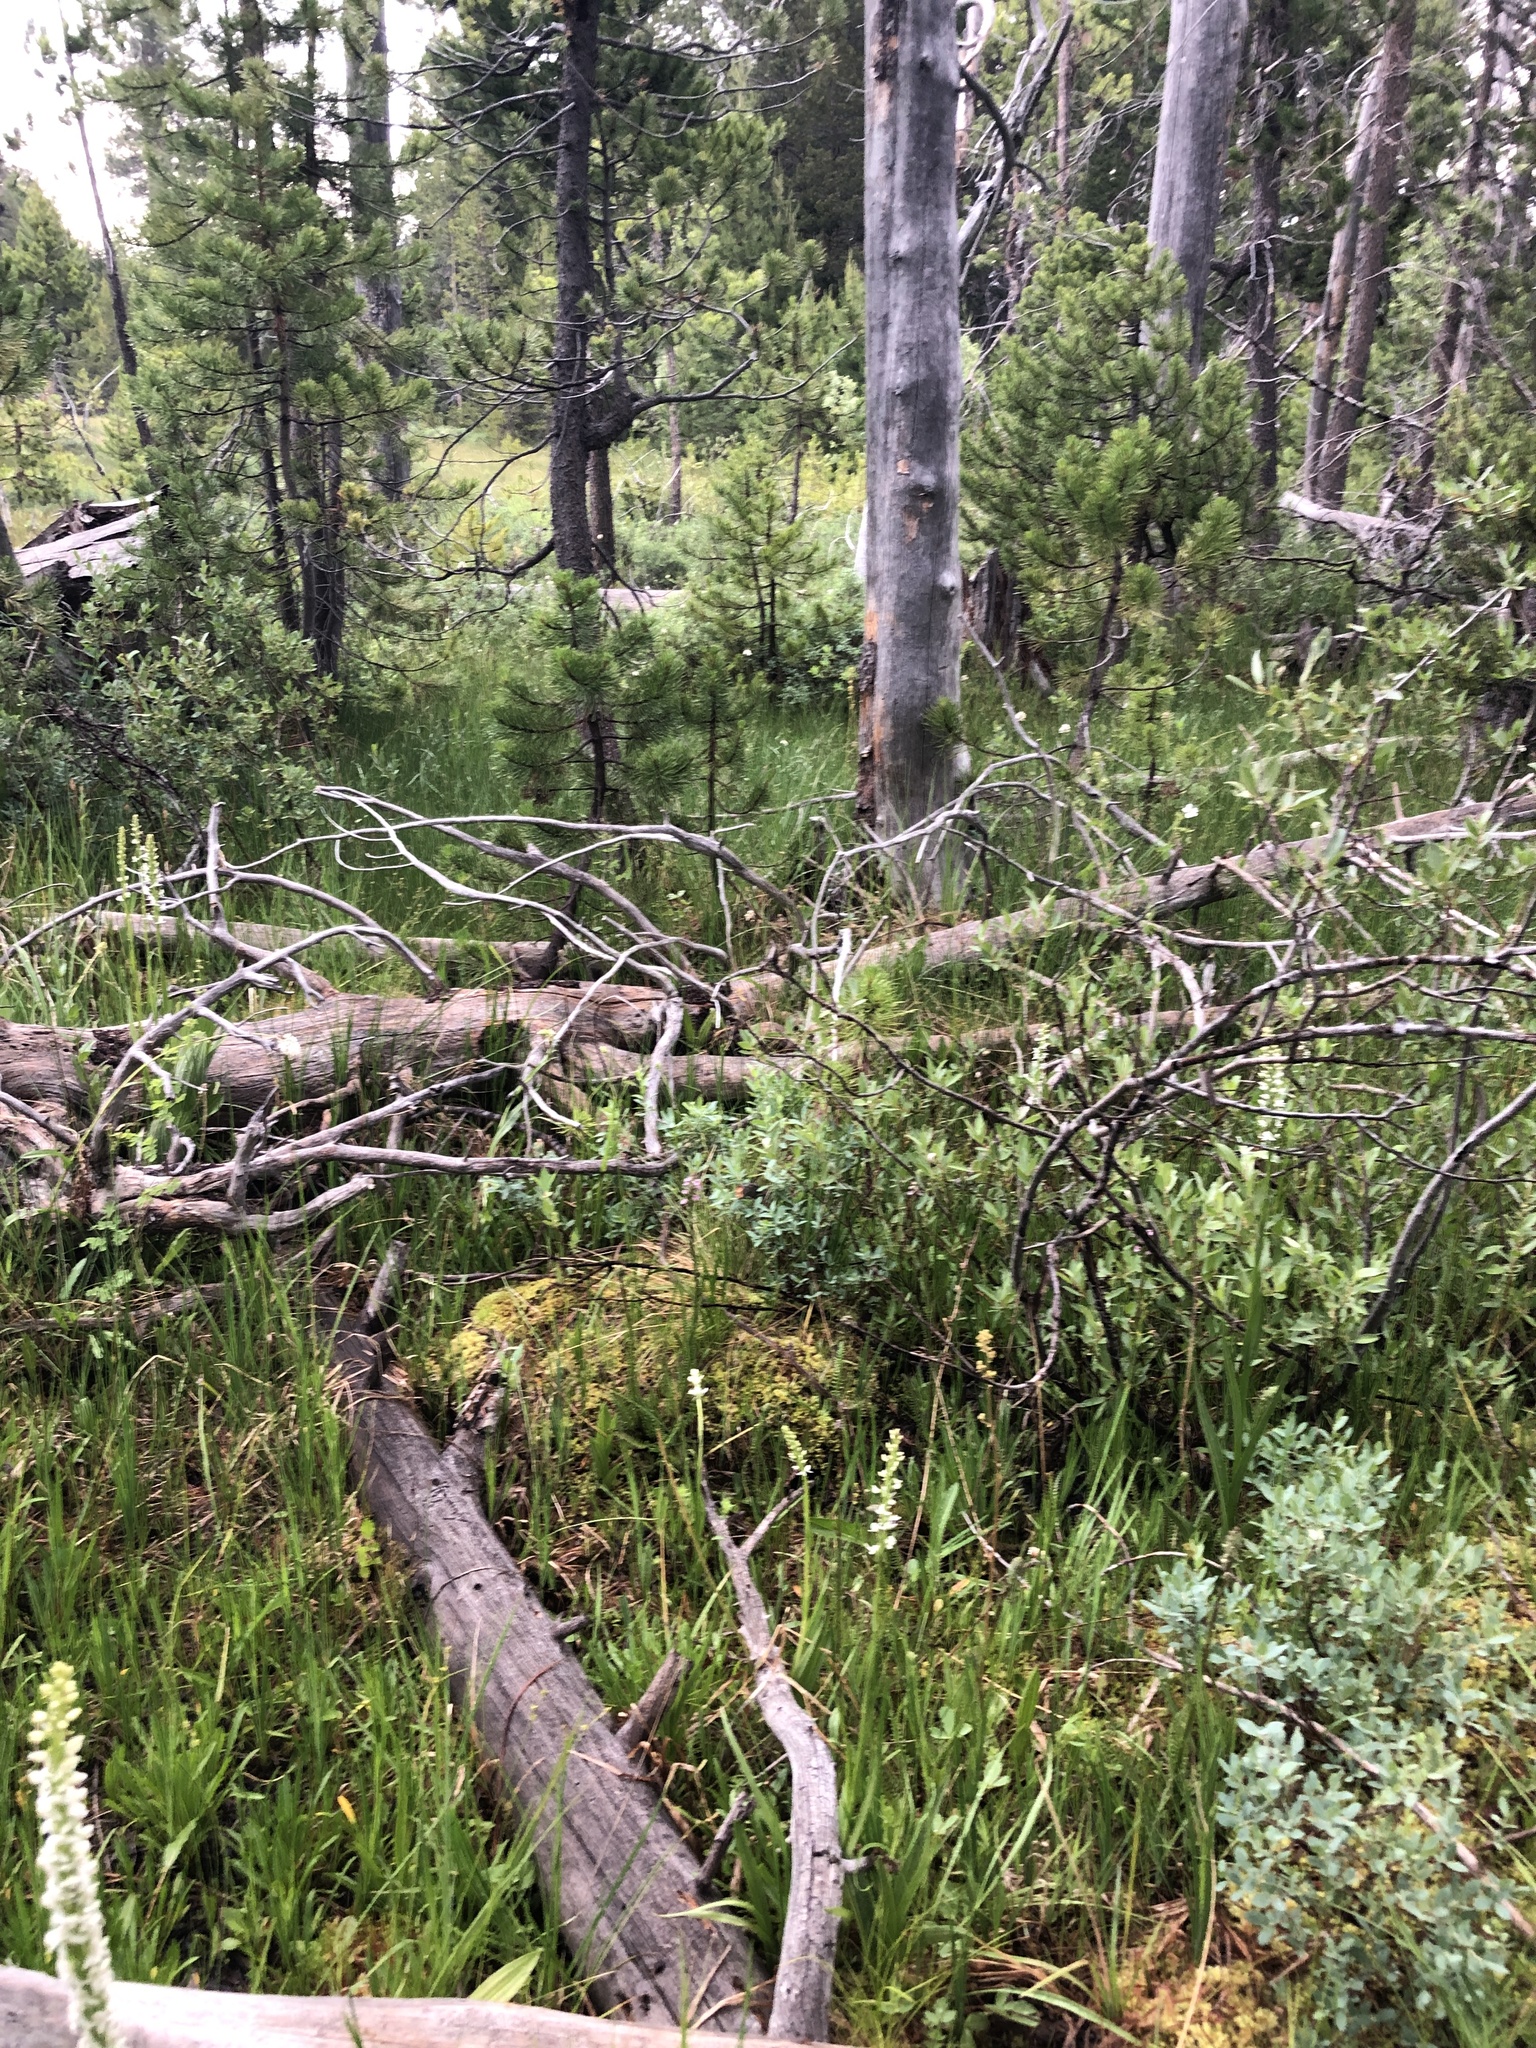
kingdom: Plantae
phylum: Tracheophyta
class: Liliopsida
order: Asparagales
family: Orchidaceae
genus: Platanthera
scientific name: Platanthera dilatata
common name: Bog candles
